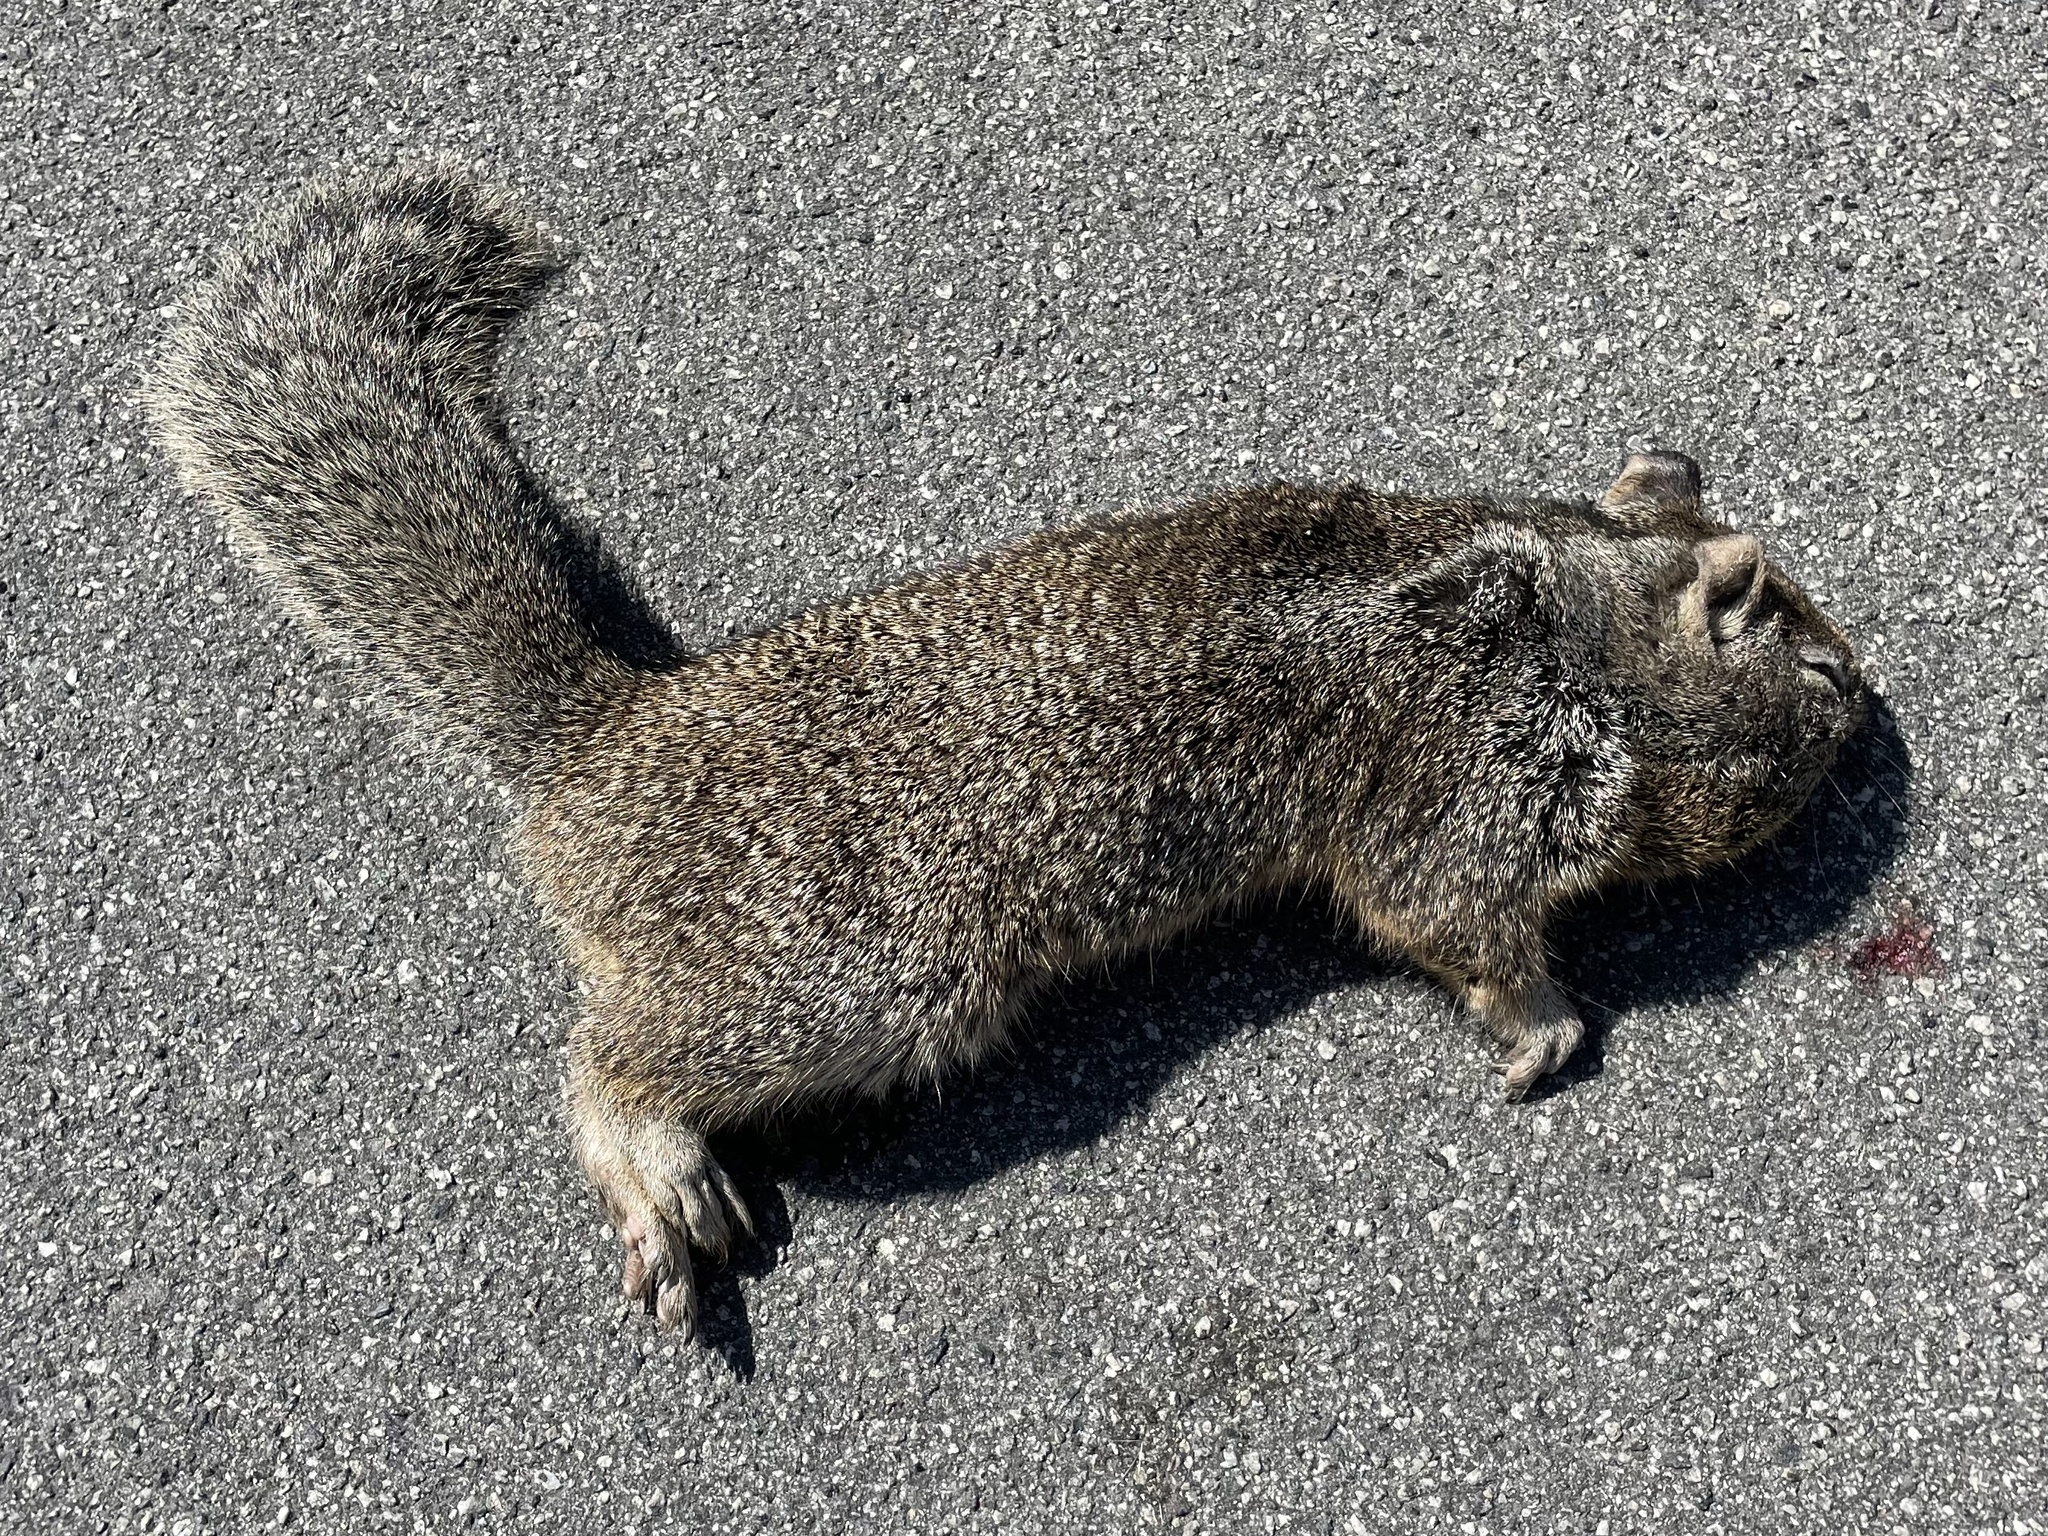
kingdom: Animalia
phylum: Chordata
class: Mammalia
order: Rodentia
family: Sciuridae
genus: Otospermophilus
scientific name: Otospermophilus beecheyi
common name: California ground squirrel
